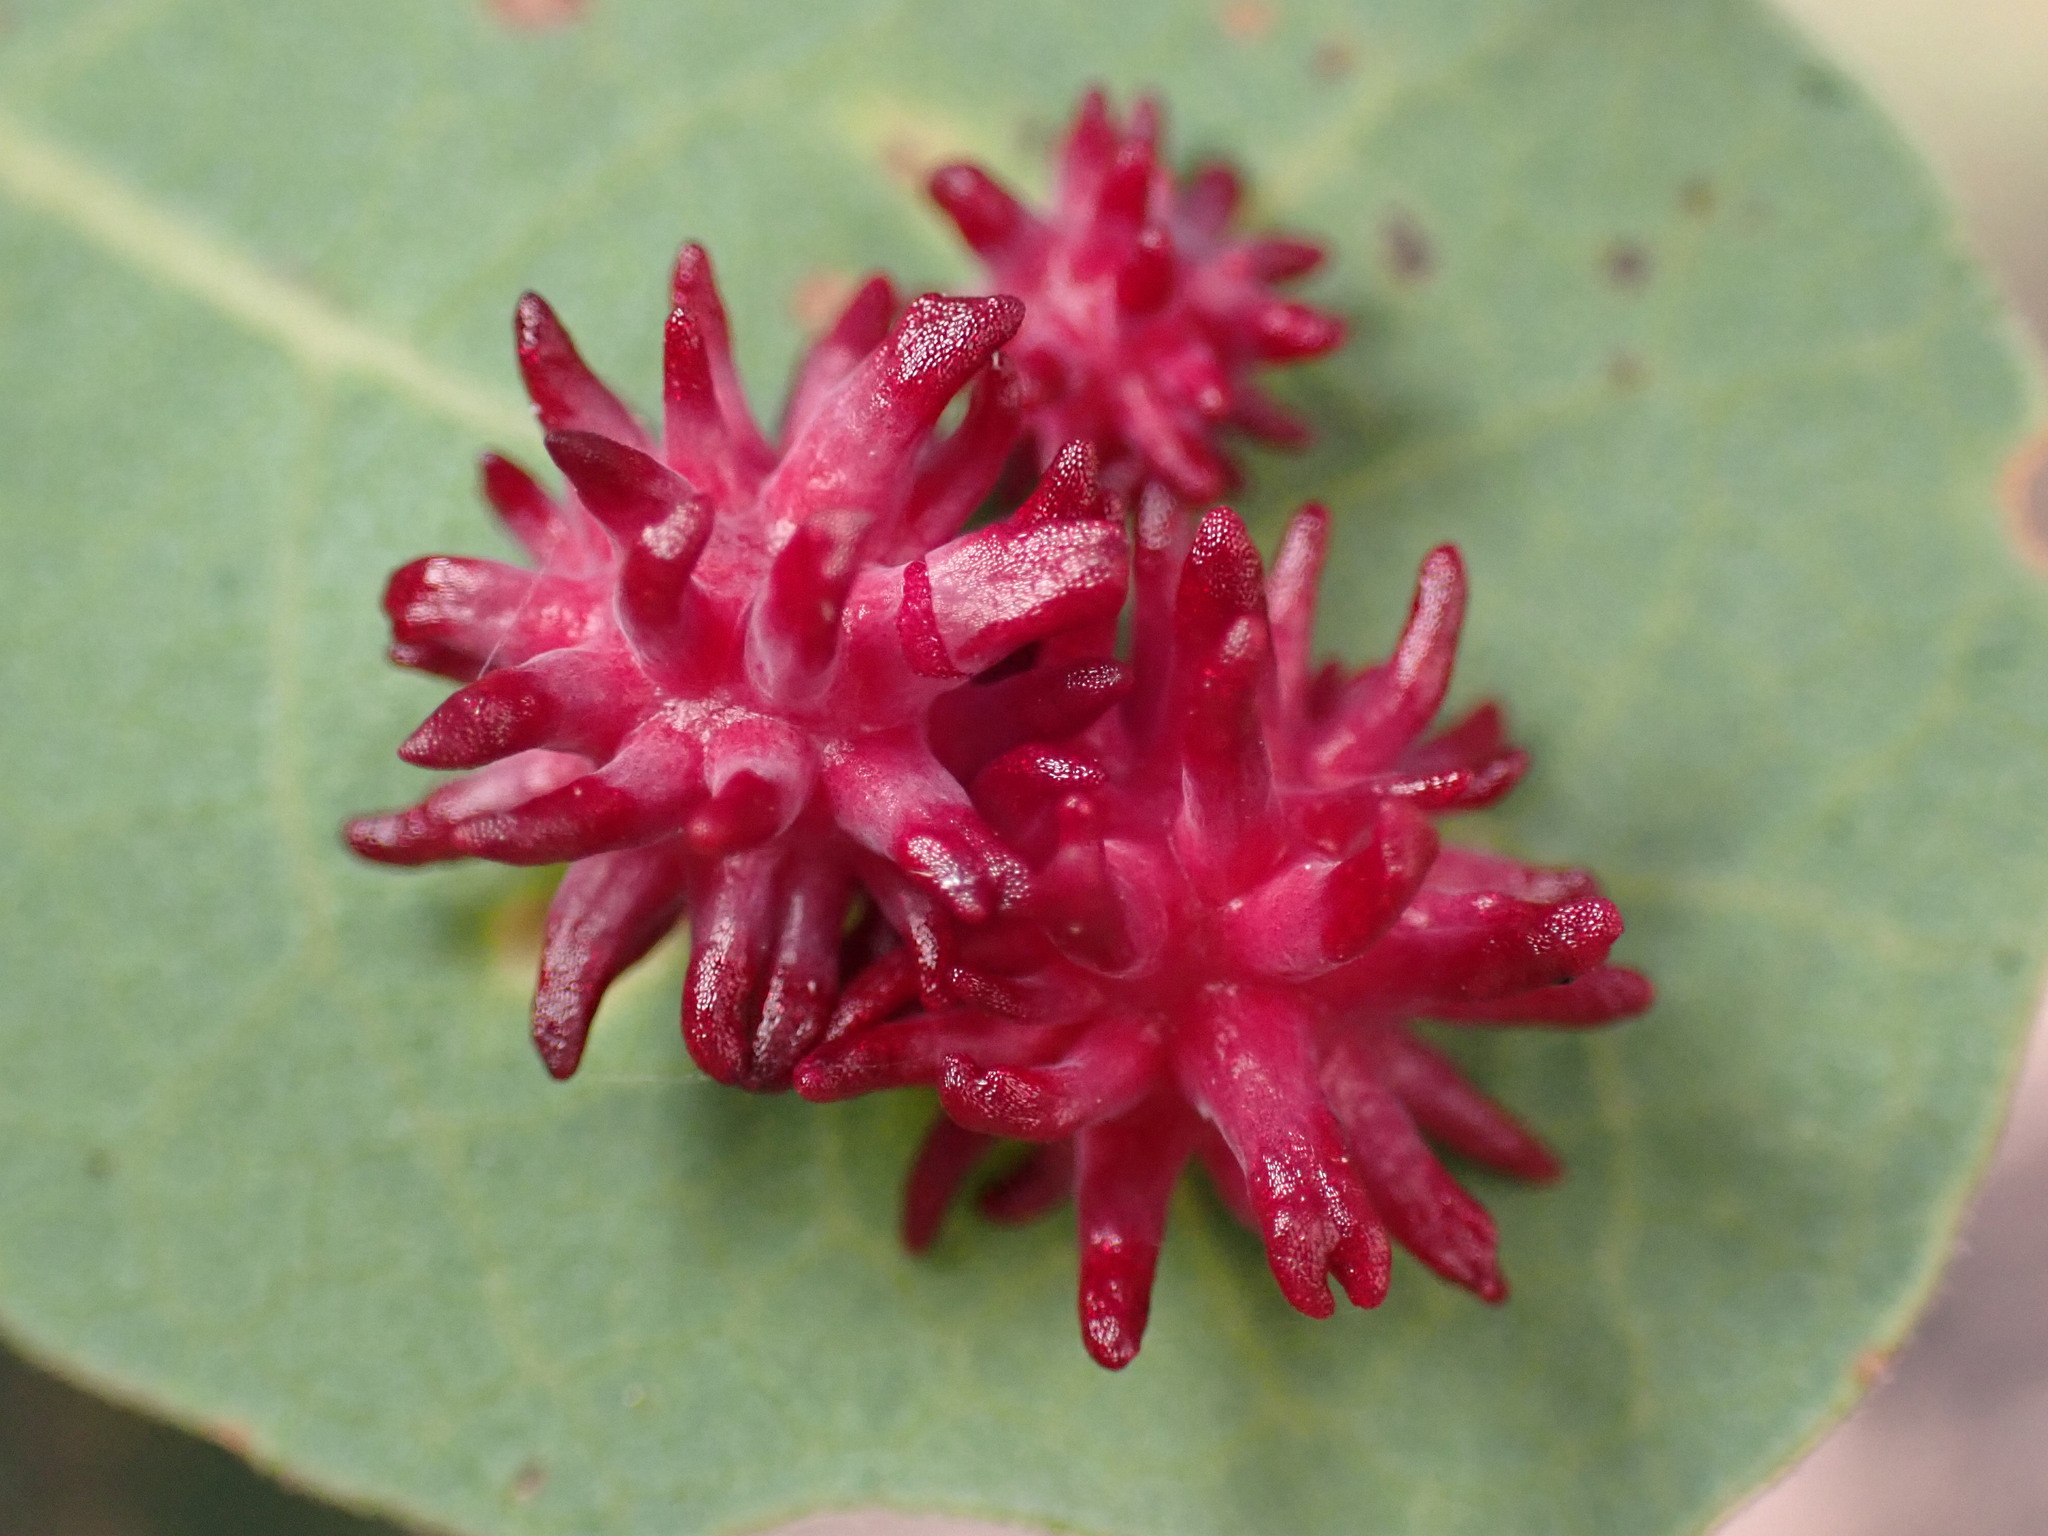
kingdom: Animalia
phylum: Arthropoda
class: Insecta
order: Hymenoptera
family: Cynipidae
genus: Cynips
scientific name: Cynips
